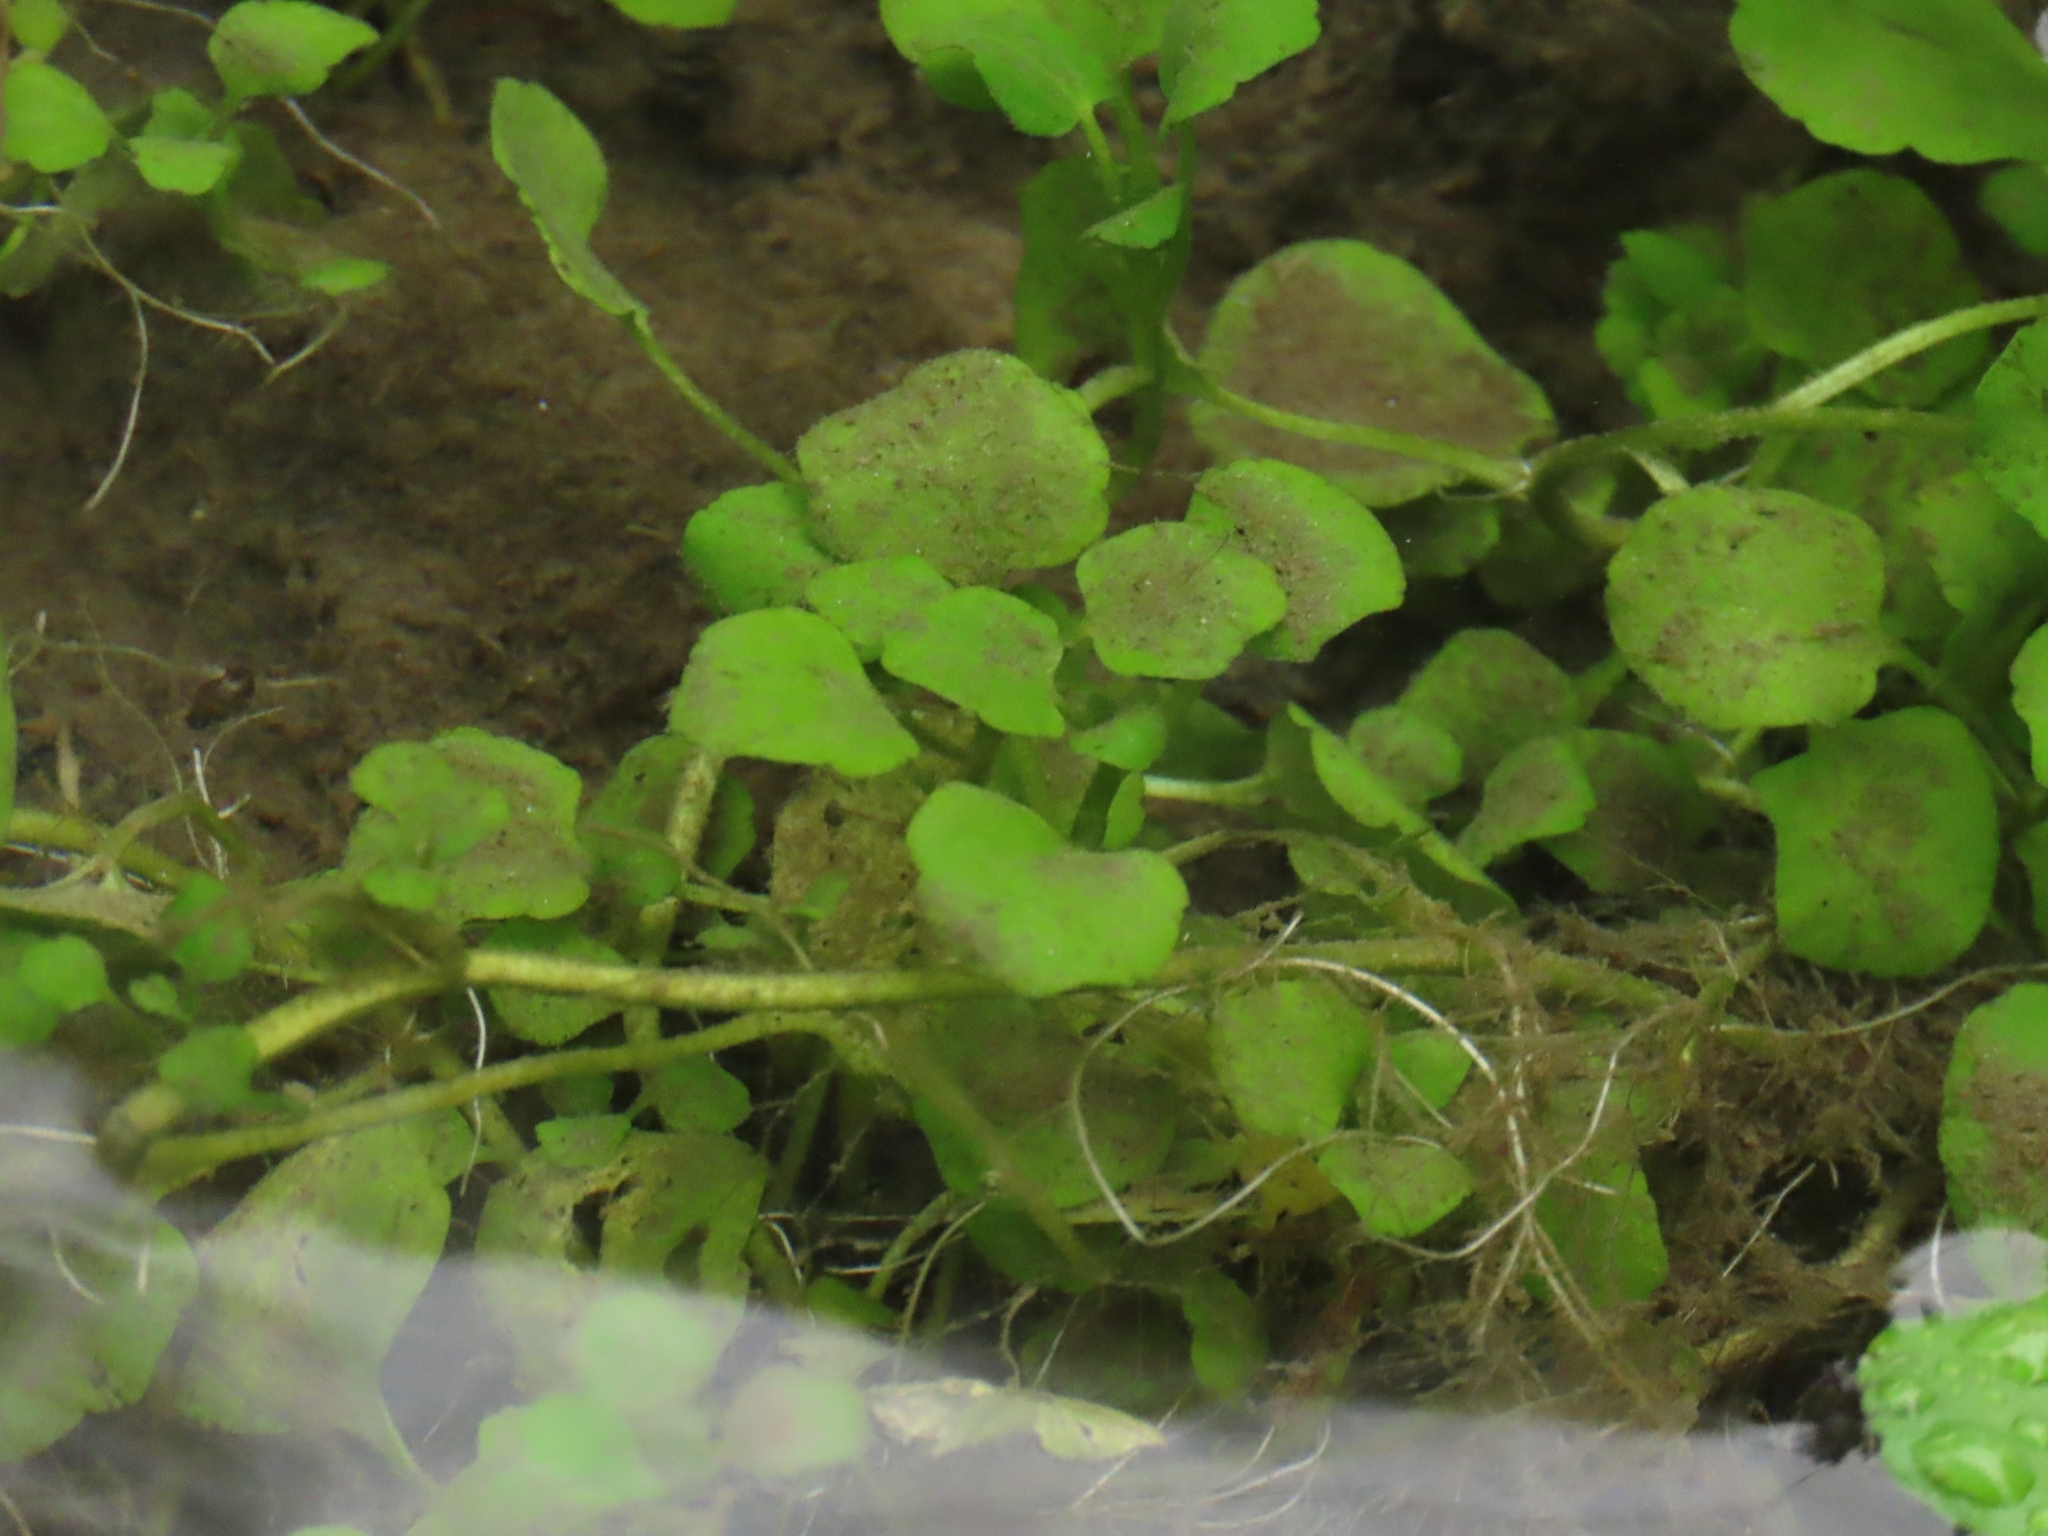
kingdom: Plantae
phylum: Tracheophyta
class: Magnoliopsida
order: Brassicales
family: Brassicaceae
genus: Nasturtium
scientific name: Nasturtium officinale
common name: Watercress
